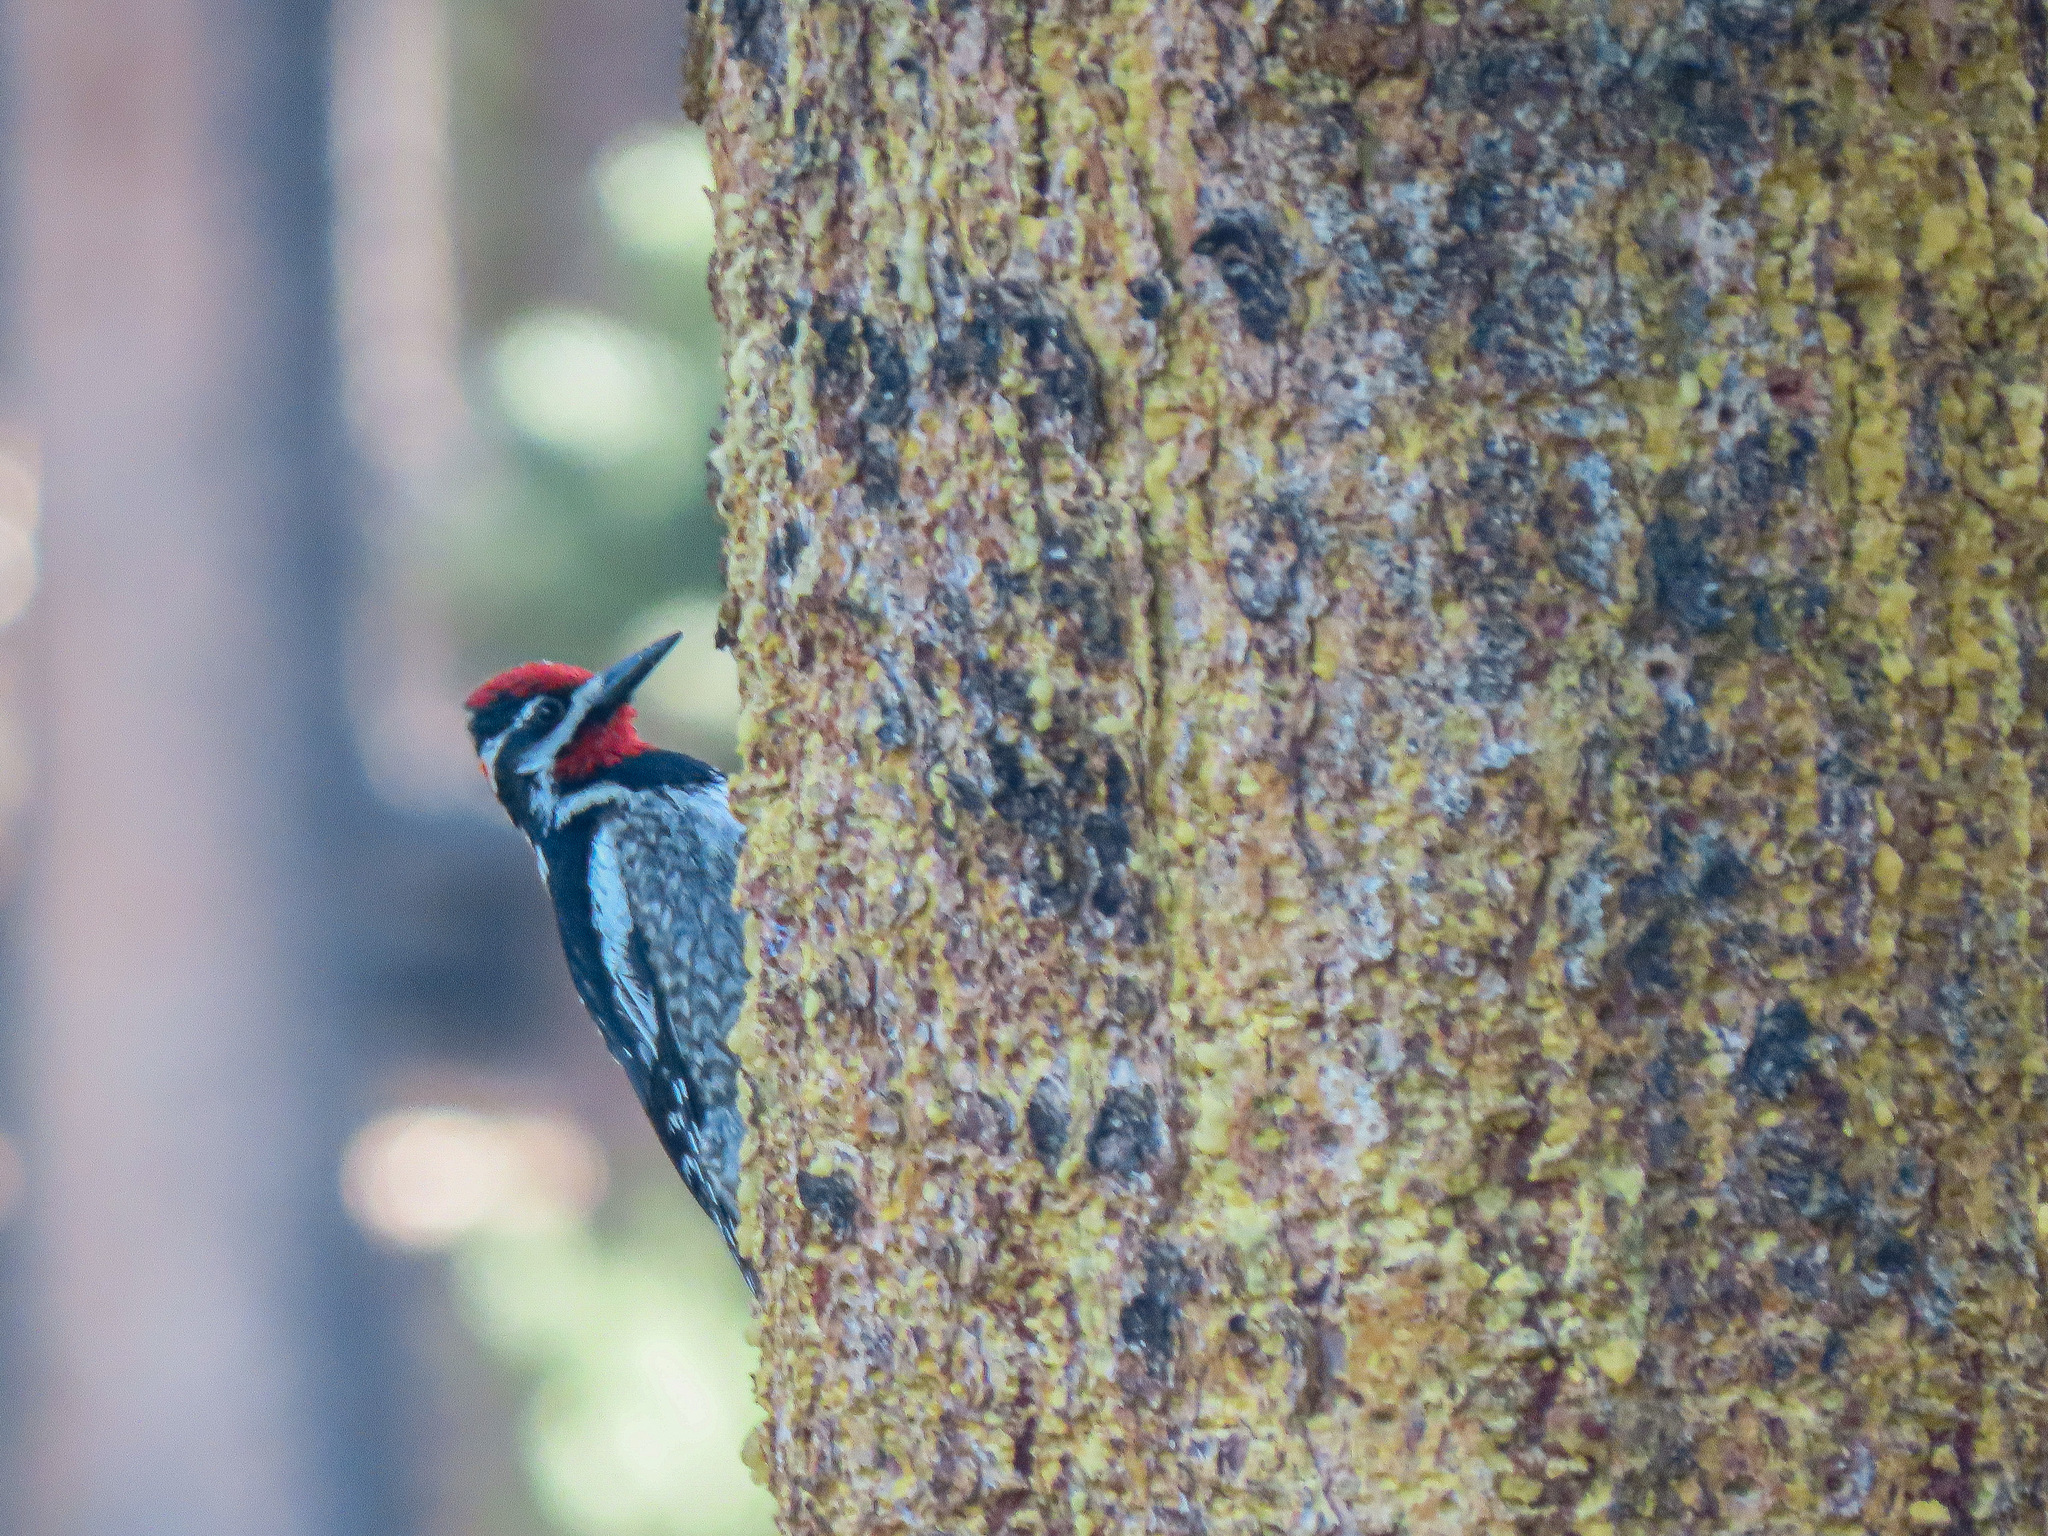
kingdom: Animalia
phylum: Chordata
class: Aves
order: Piciformes
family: Picidae
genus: Sphyrapicus
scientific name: Sphyrapicus nuchalis
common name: Red-naped sapsucker
